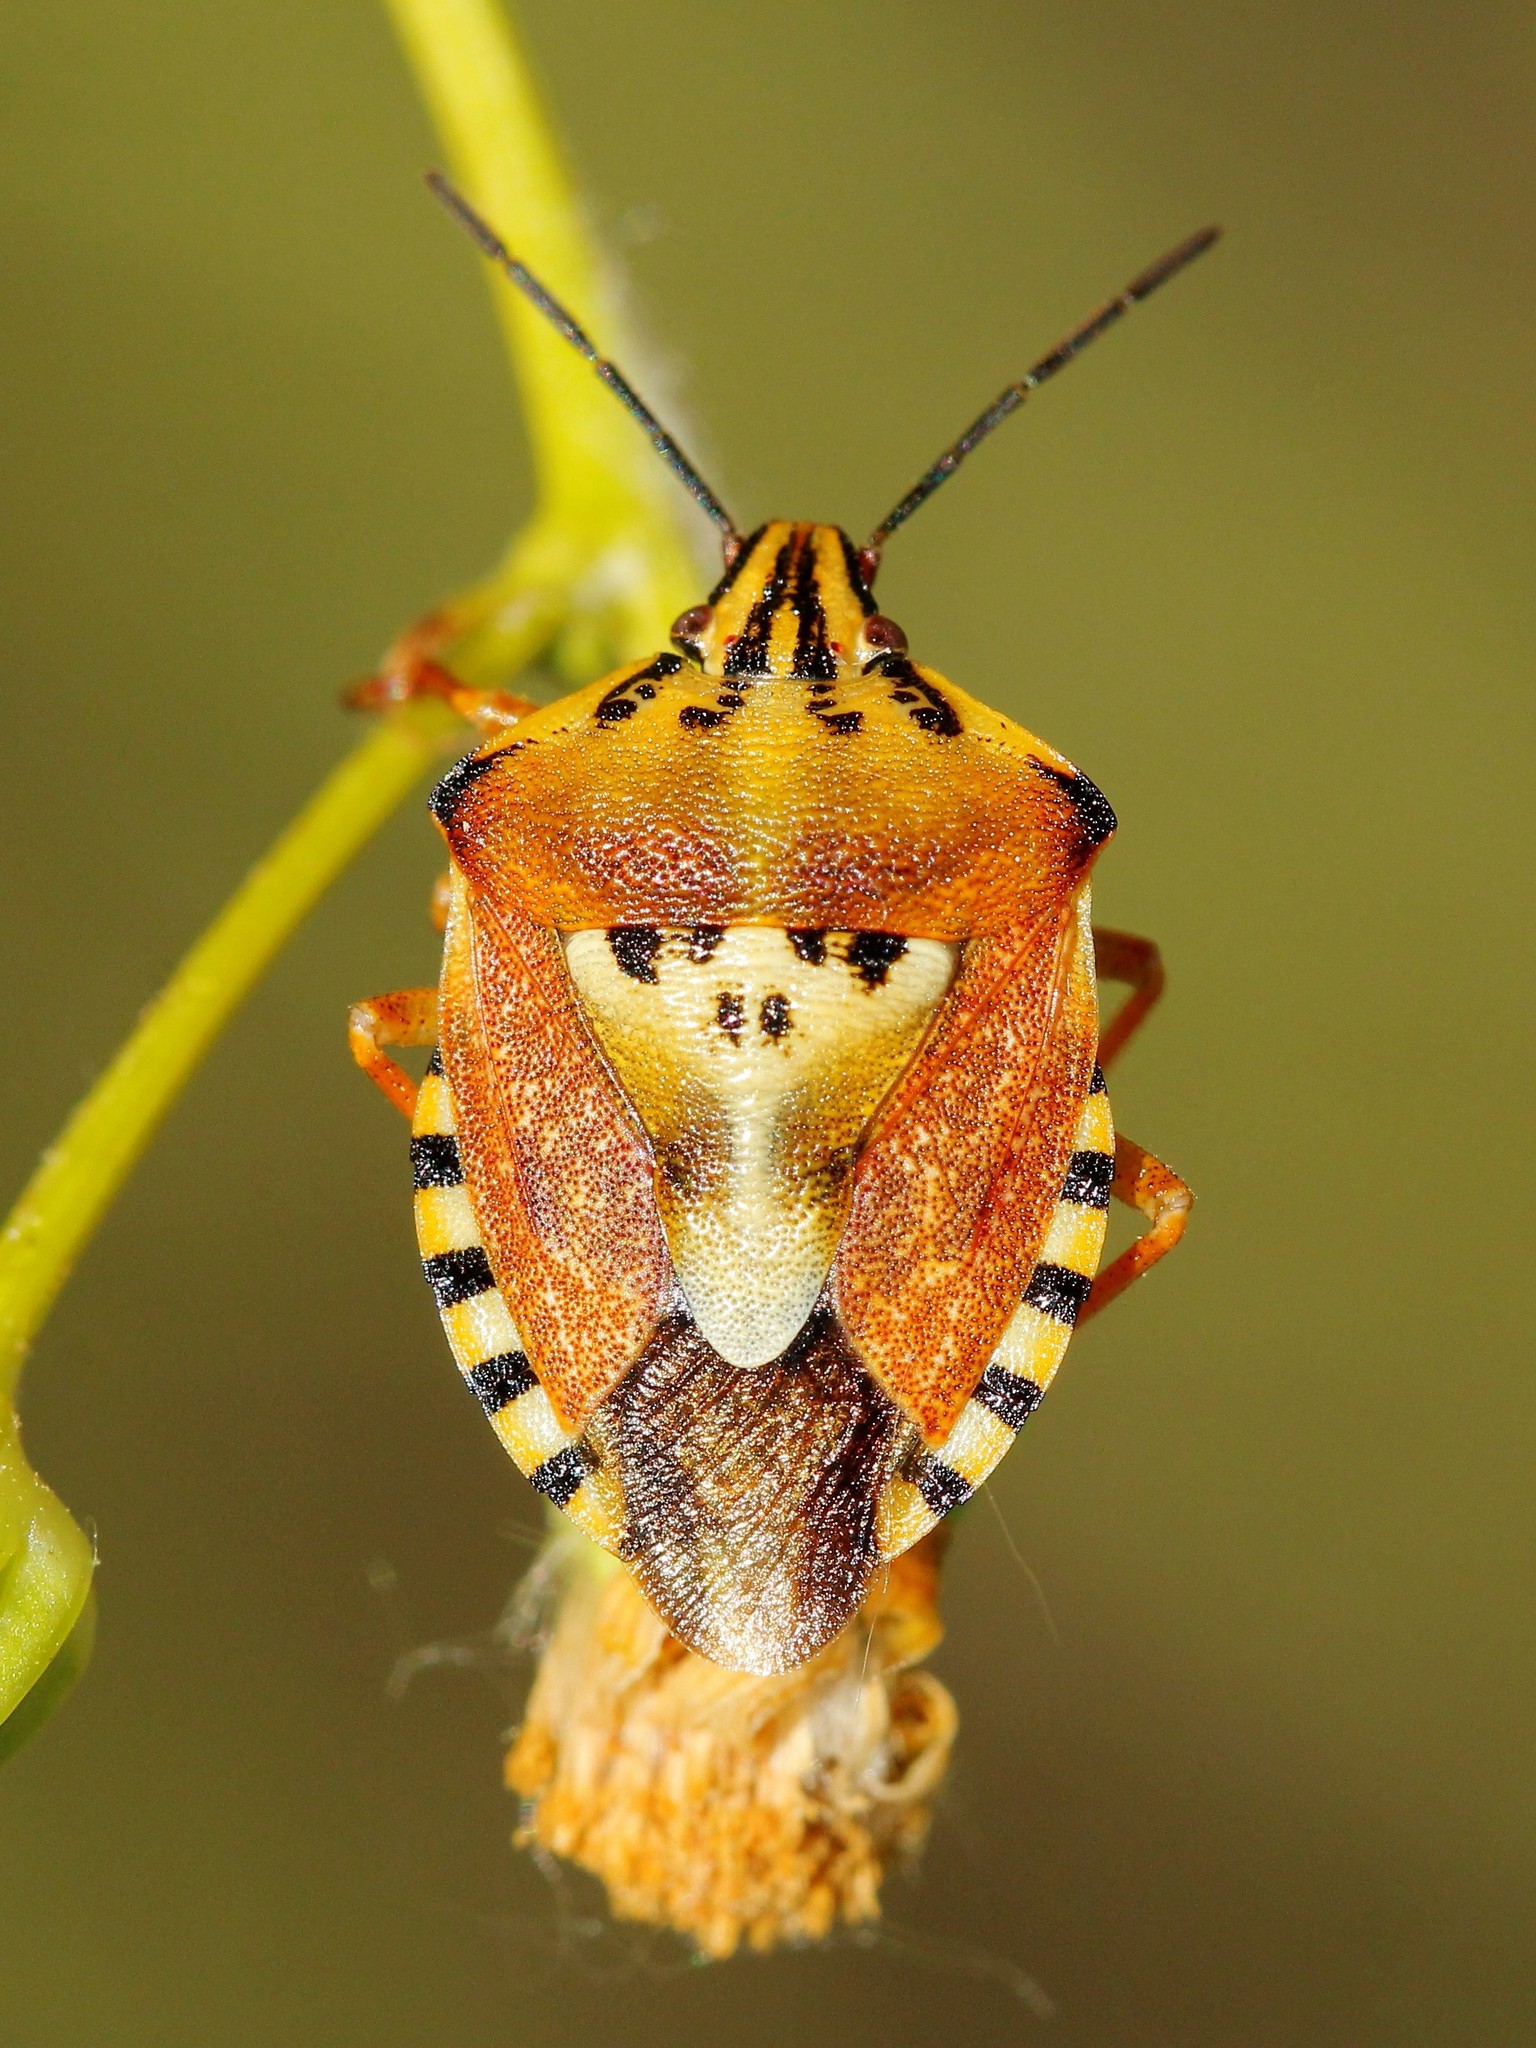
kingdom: Animalia
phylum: Arthropoda
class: Insecta
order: Hemiptera
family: Pentatomidae
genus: Carpocoris
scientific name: Carpocoris purpureipennis
